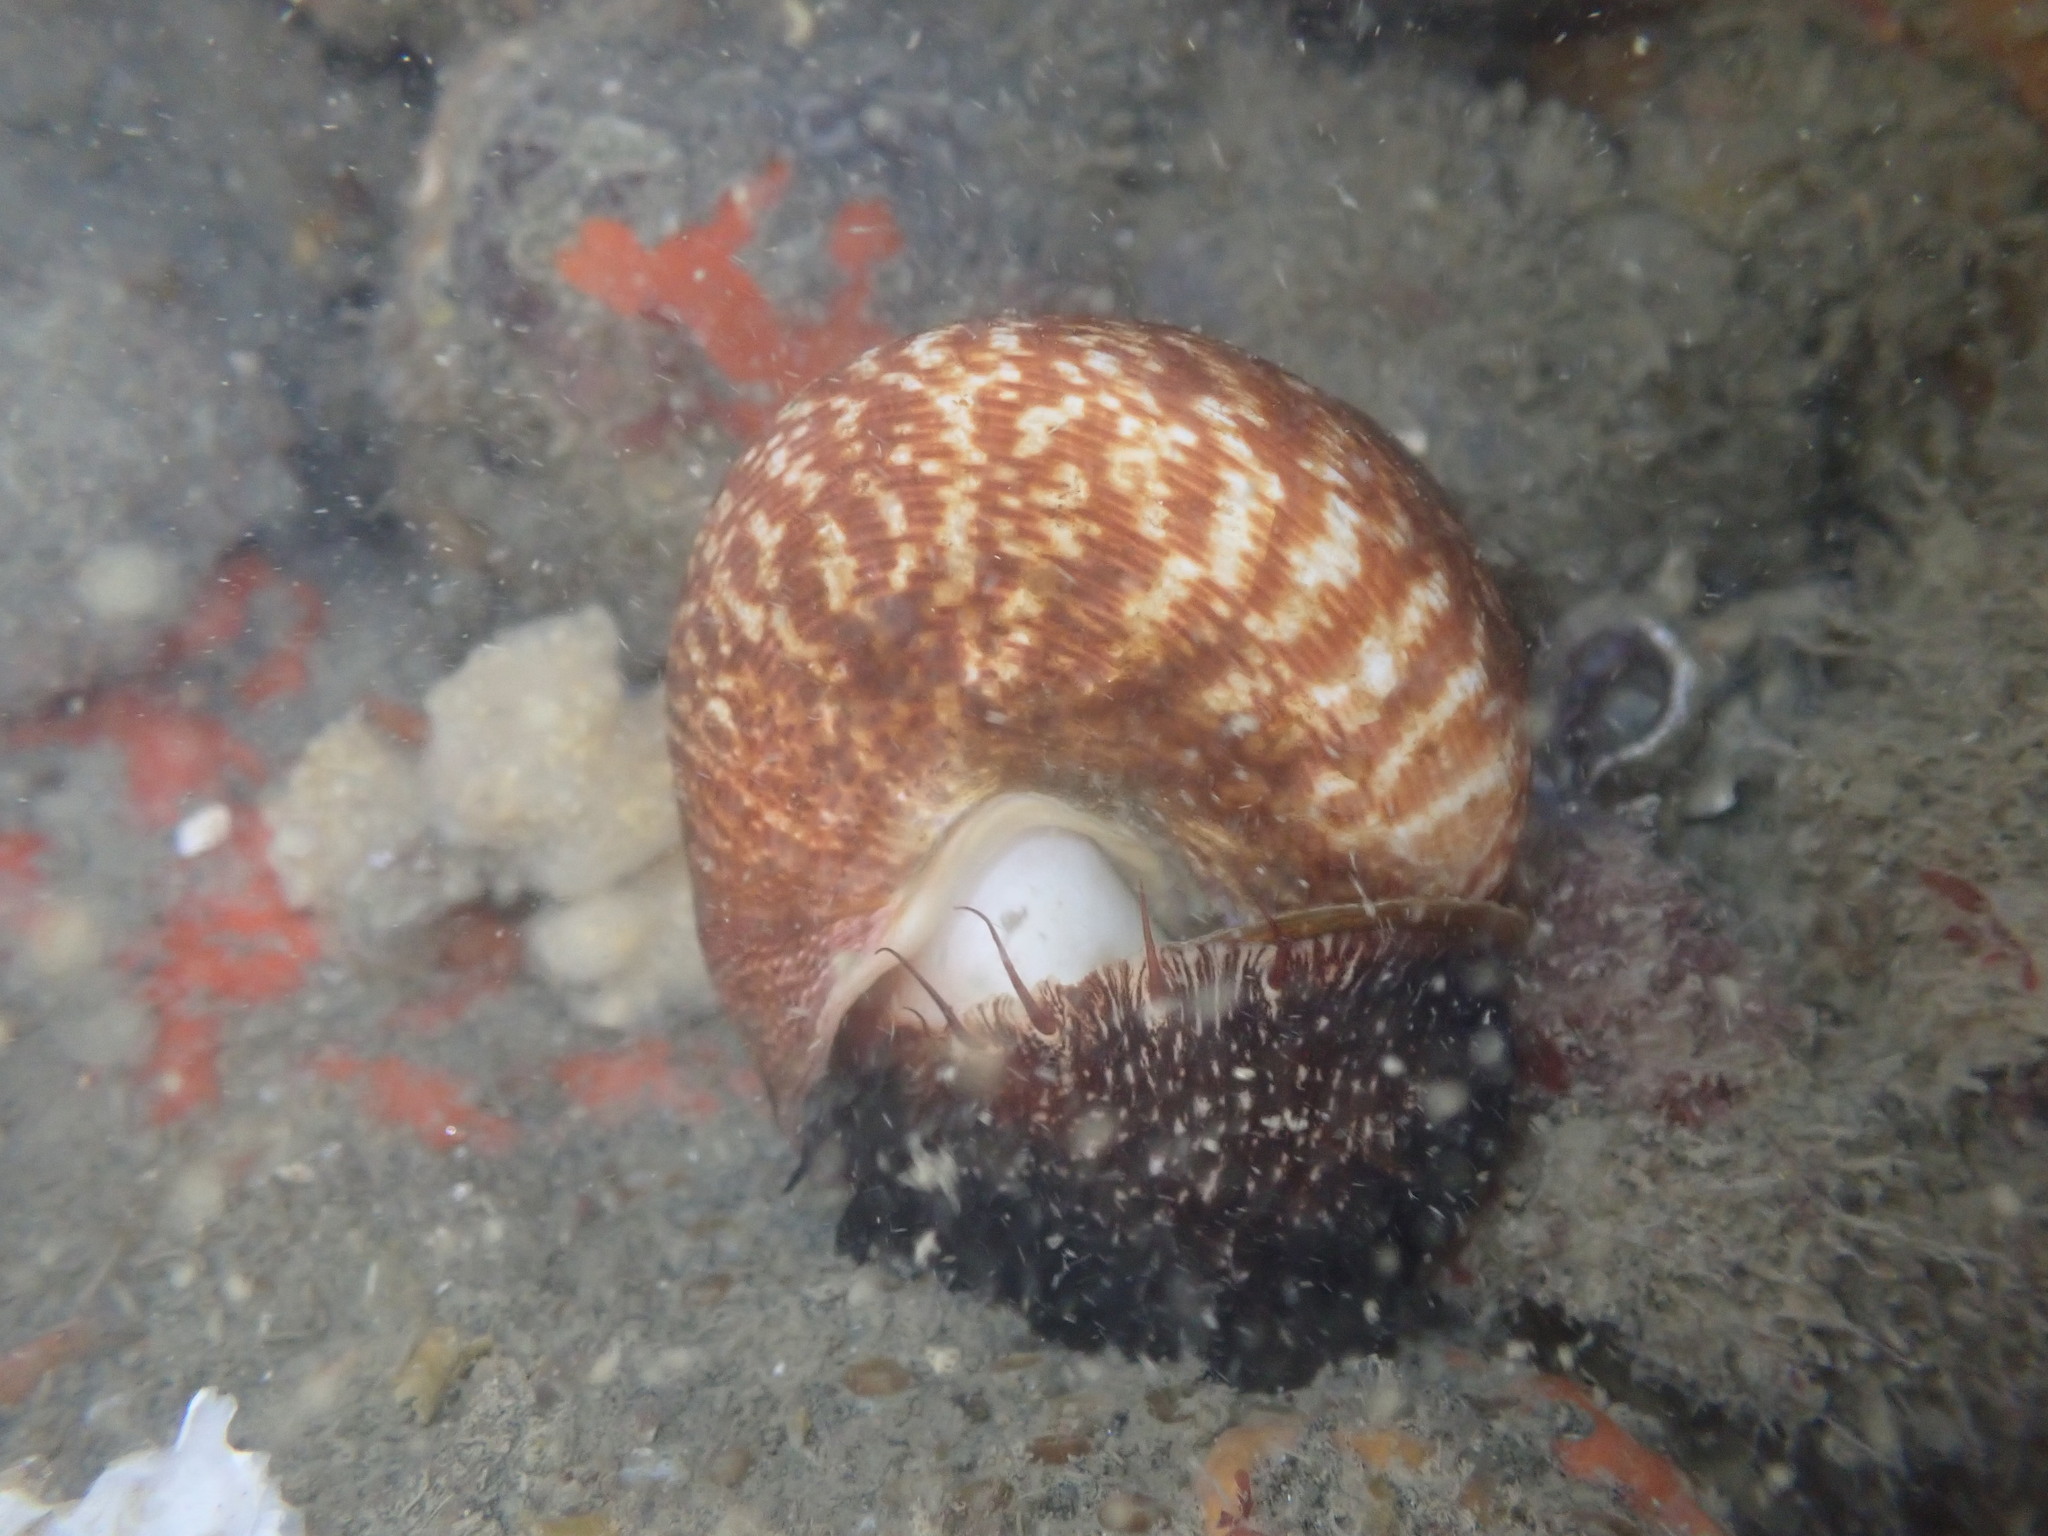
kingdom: Animalia
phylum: Mollusca
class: Gastropoda
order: Trochida
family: Calliostomatidae
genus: Maurea
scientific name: Maurea tigris
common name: Tiger maurea
